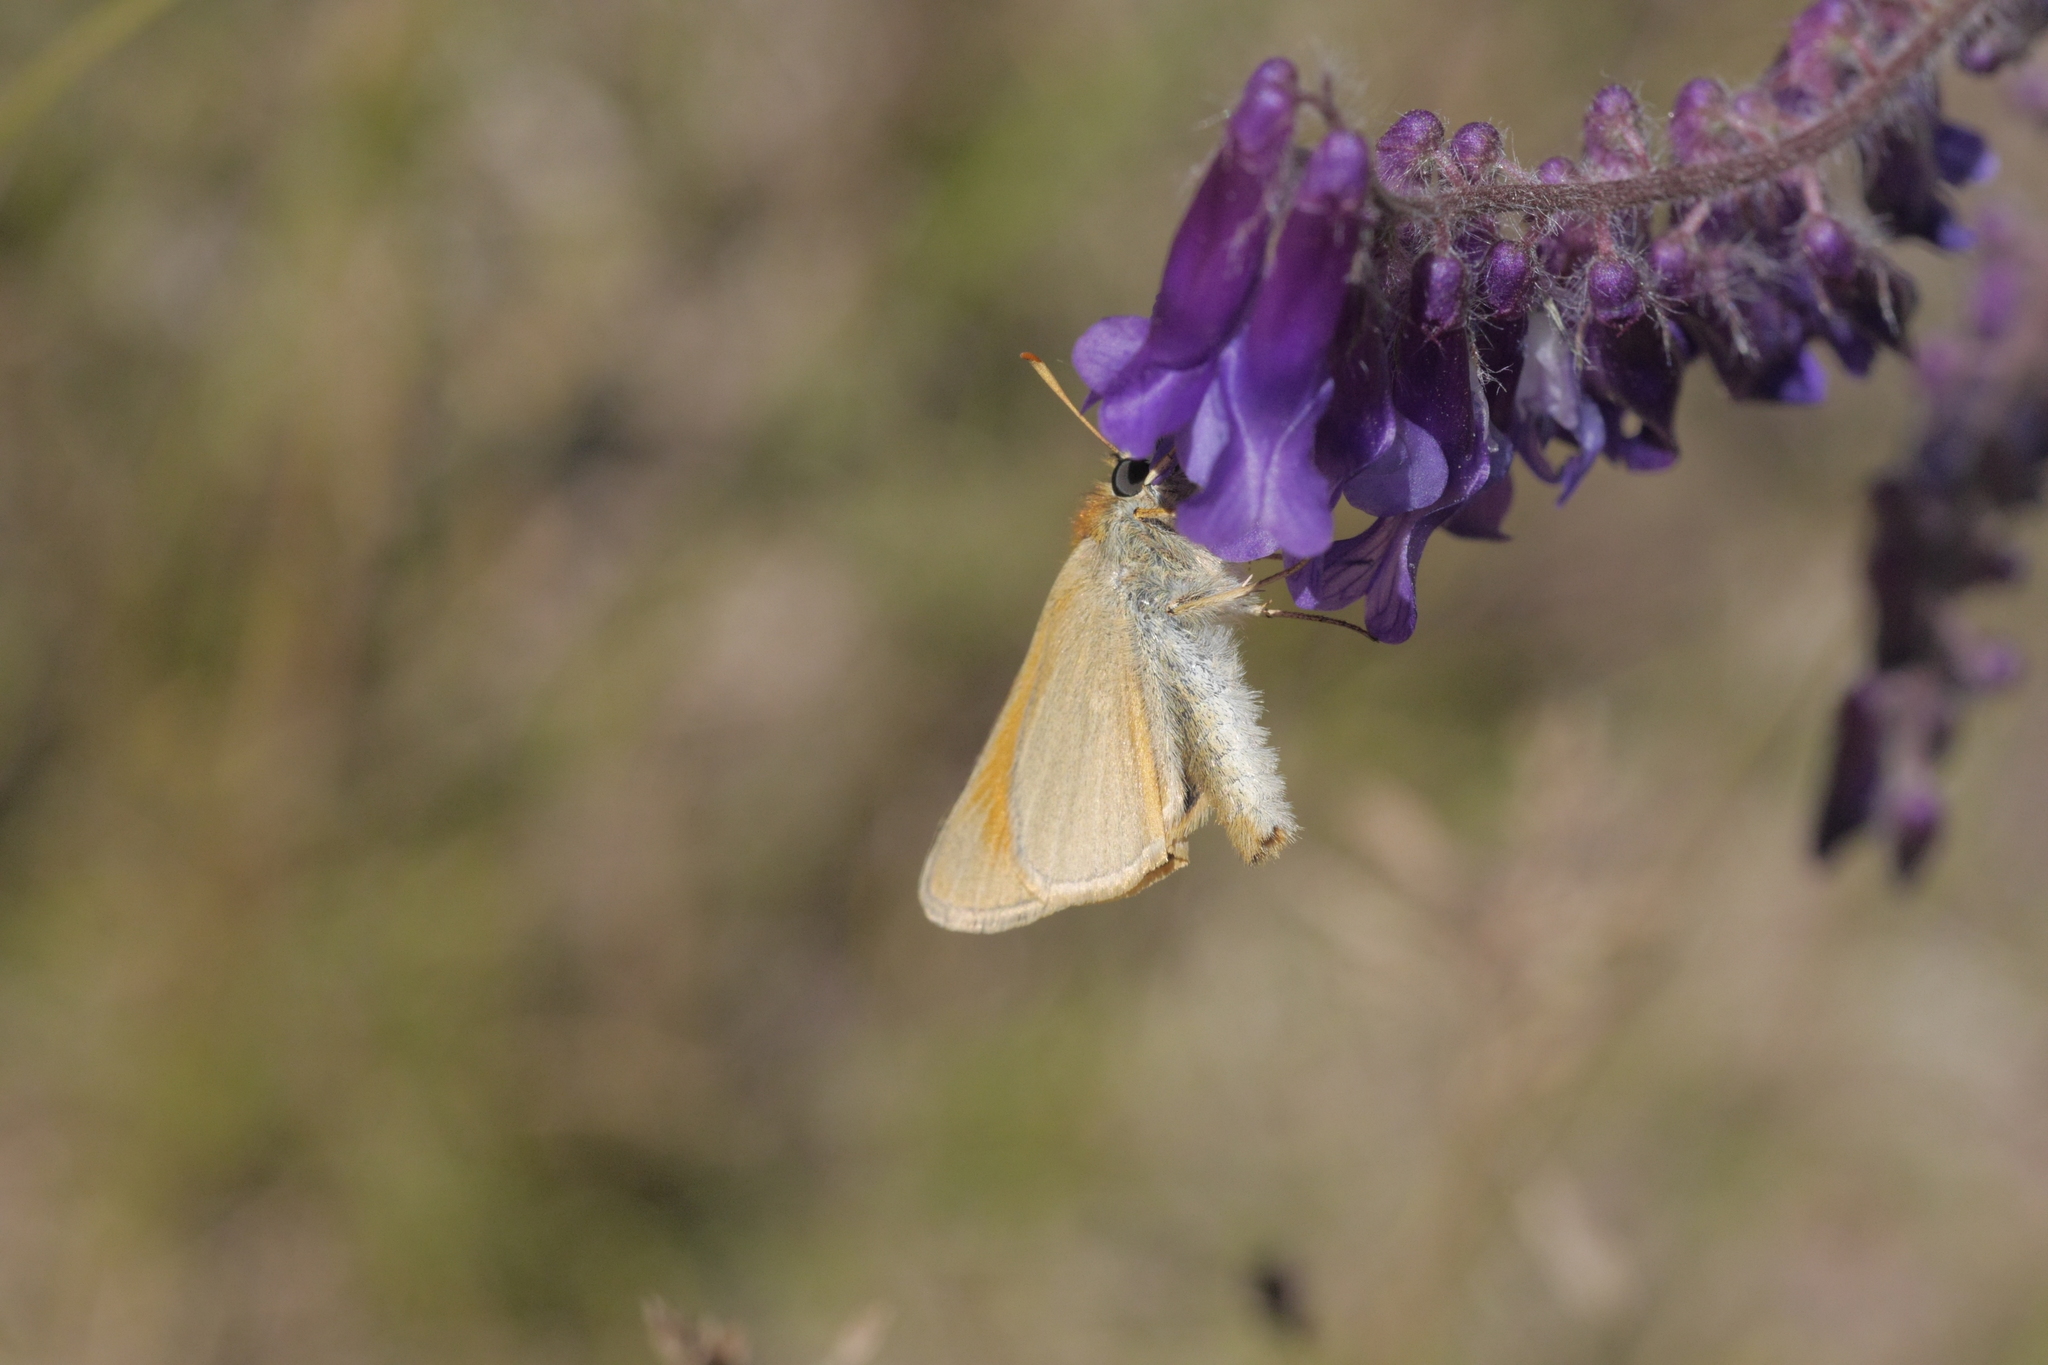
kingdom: Animalia
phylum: Arthropoda
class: Insecta
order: Lepidoptera
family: Hesperiidae
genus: Thymelicus
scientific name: Thymelicus sylvestris
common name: Small skipper
